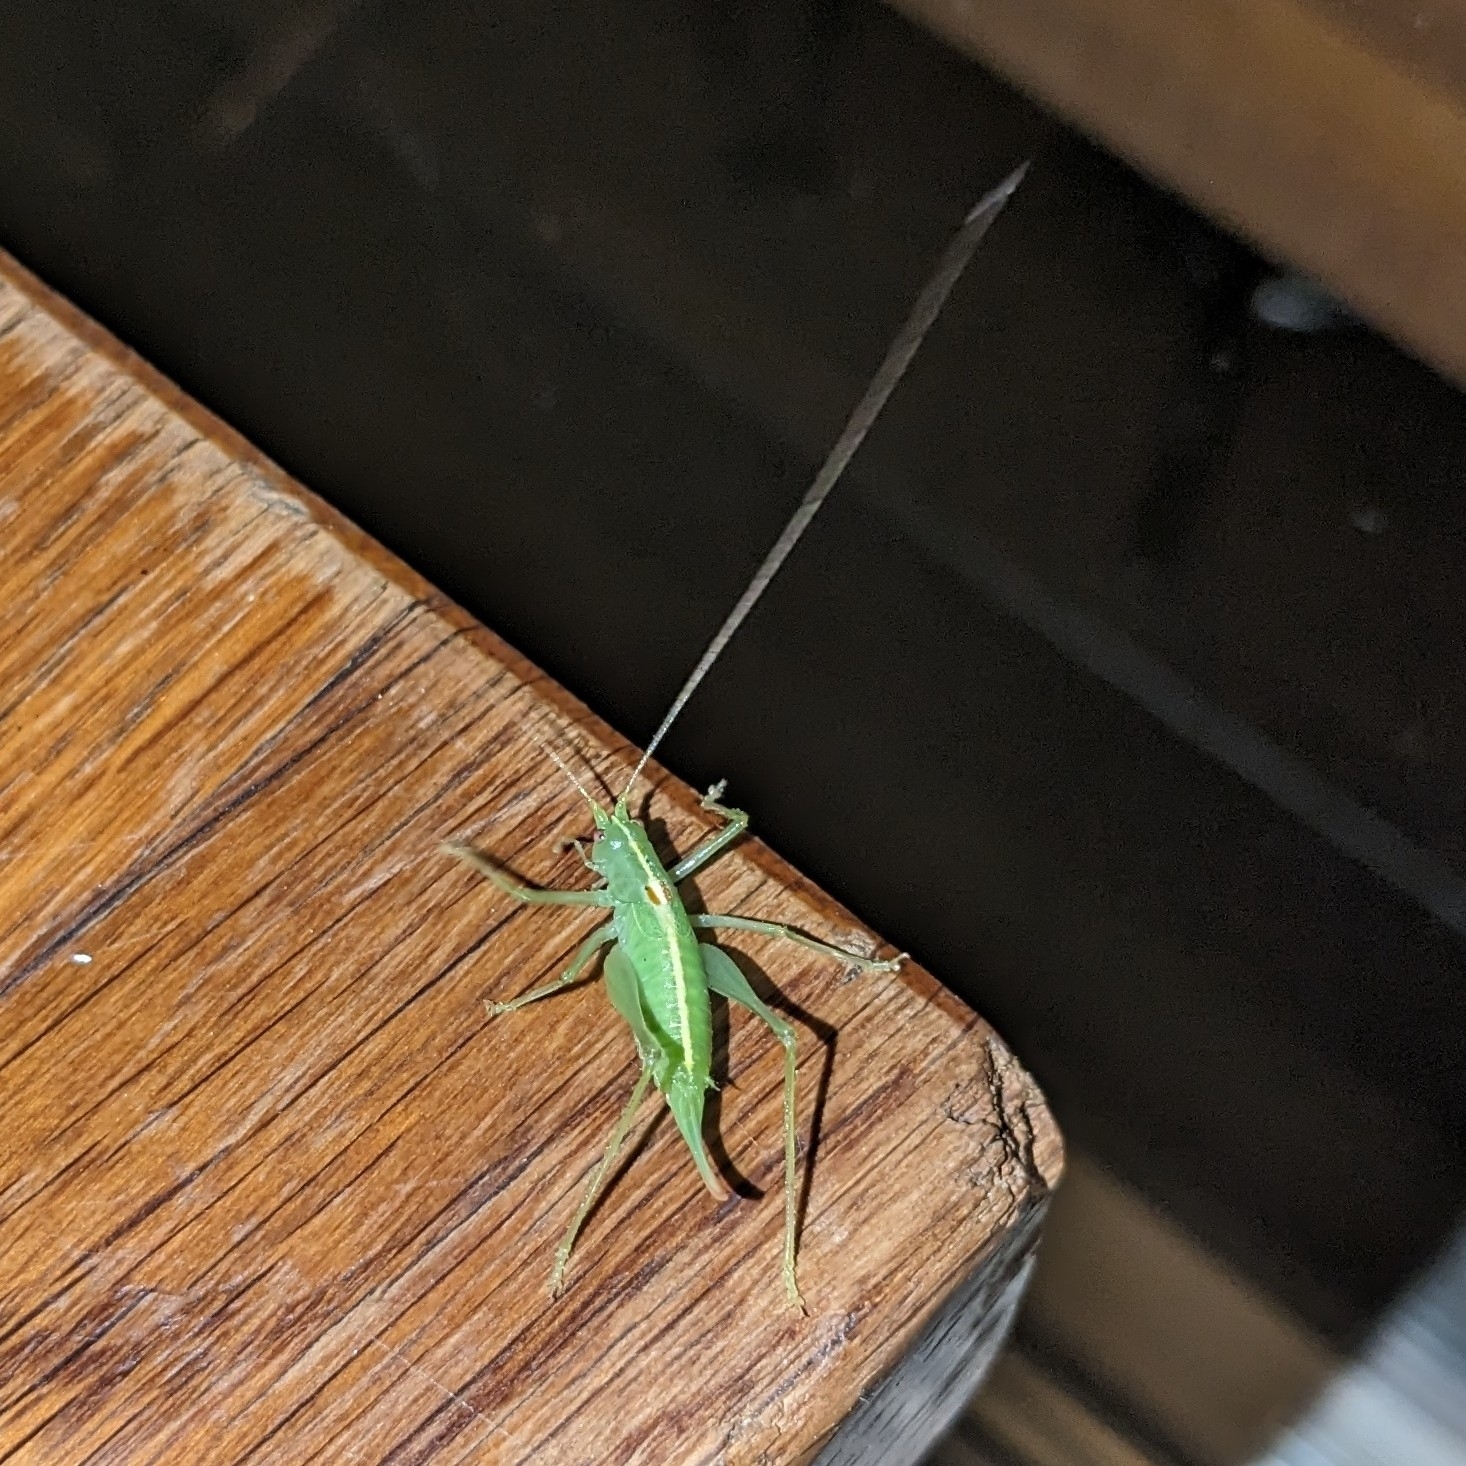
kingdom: Animalia
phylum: Arthropoda
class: Insecta
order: Orthoptera
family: Tettigoniidae
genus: Meconema
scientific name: Meconema meridionale
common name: Southern oak bush-cricket
